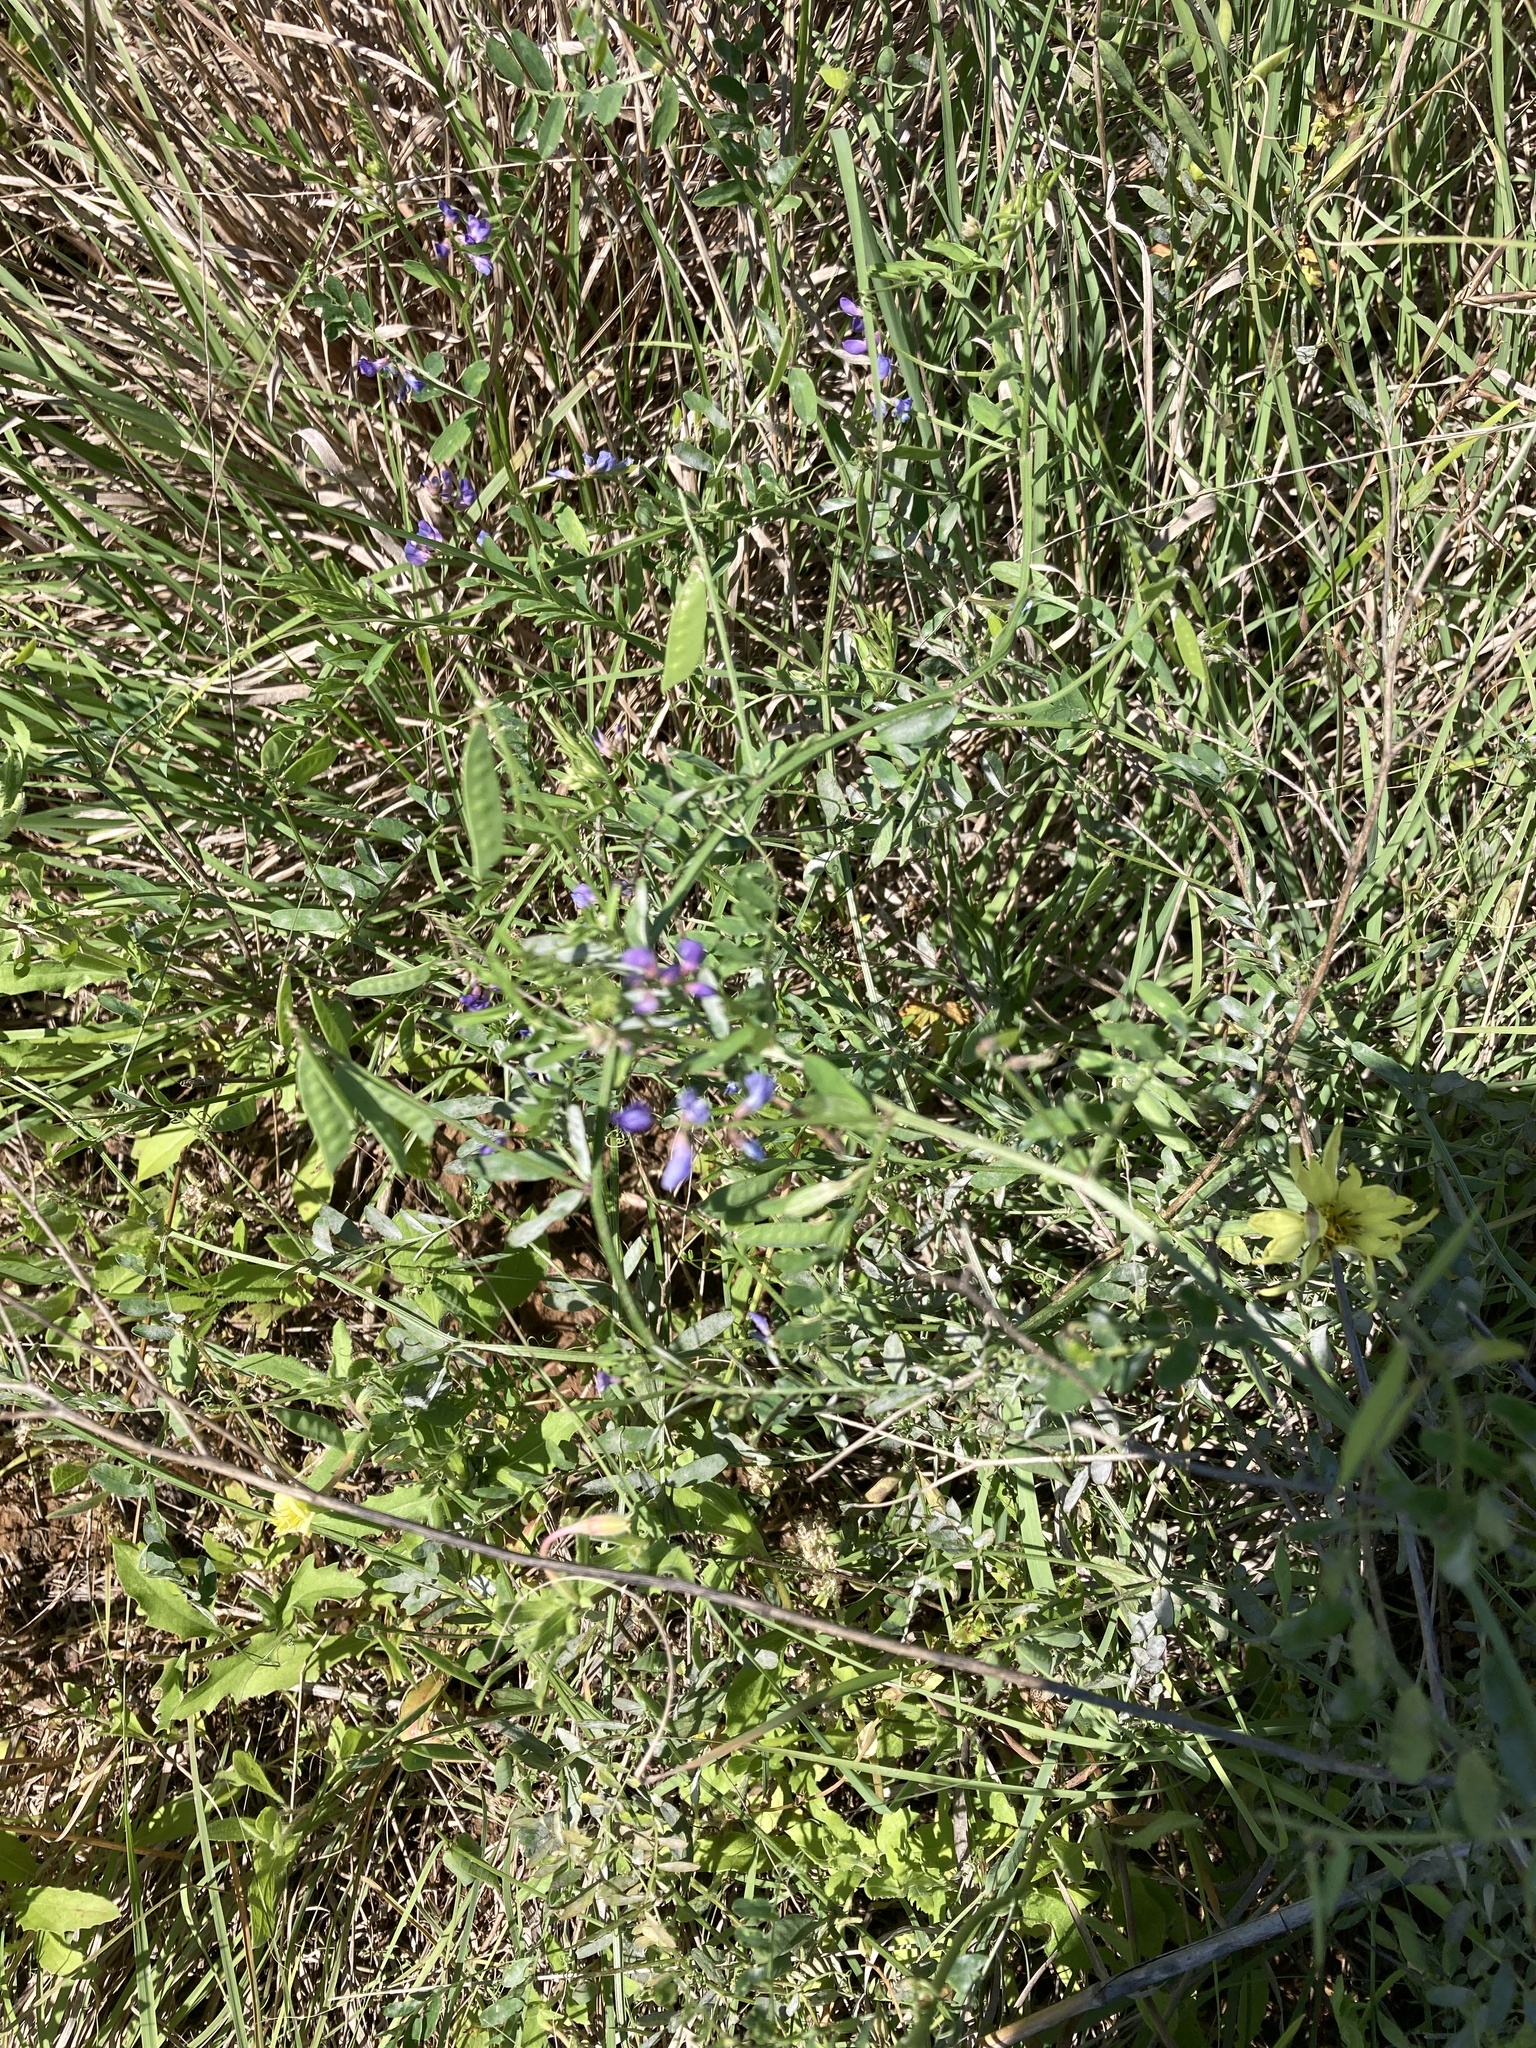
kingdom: Plantae
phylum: Tracheophyta
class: Magnoliopsida
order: Fabales
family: Fabaceae
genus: Vicia
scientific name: Vicia ludoviciana
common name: Louisiana vetch
